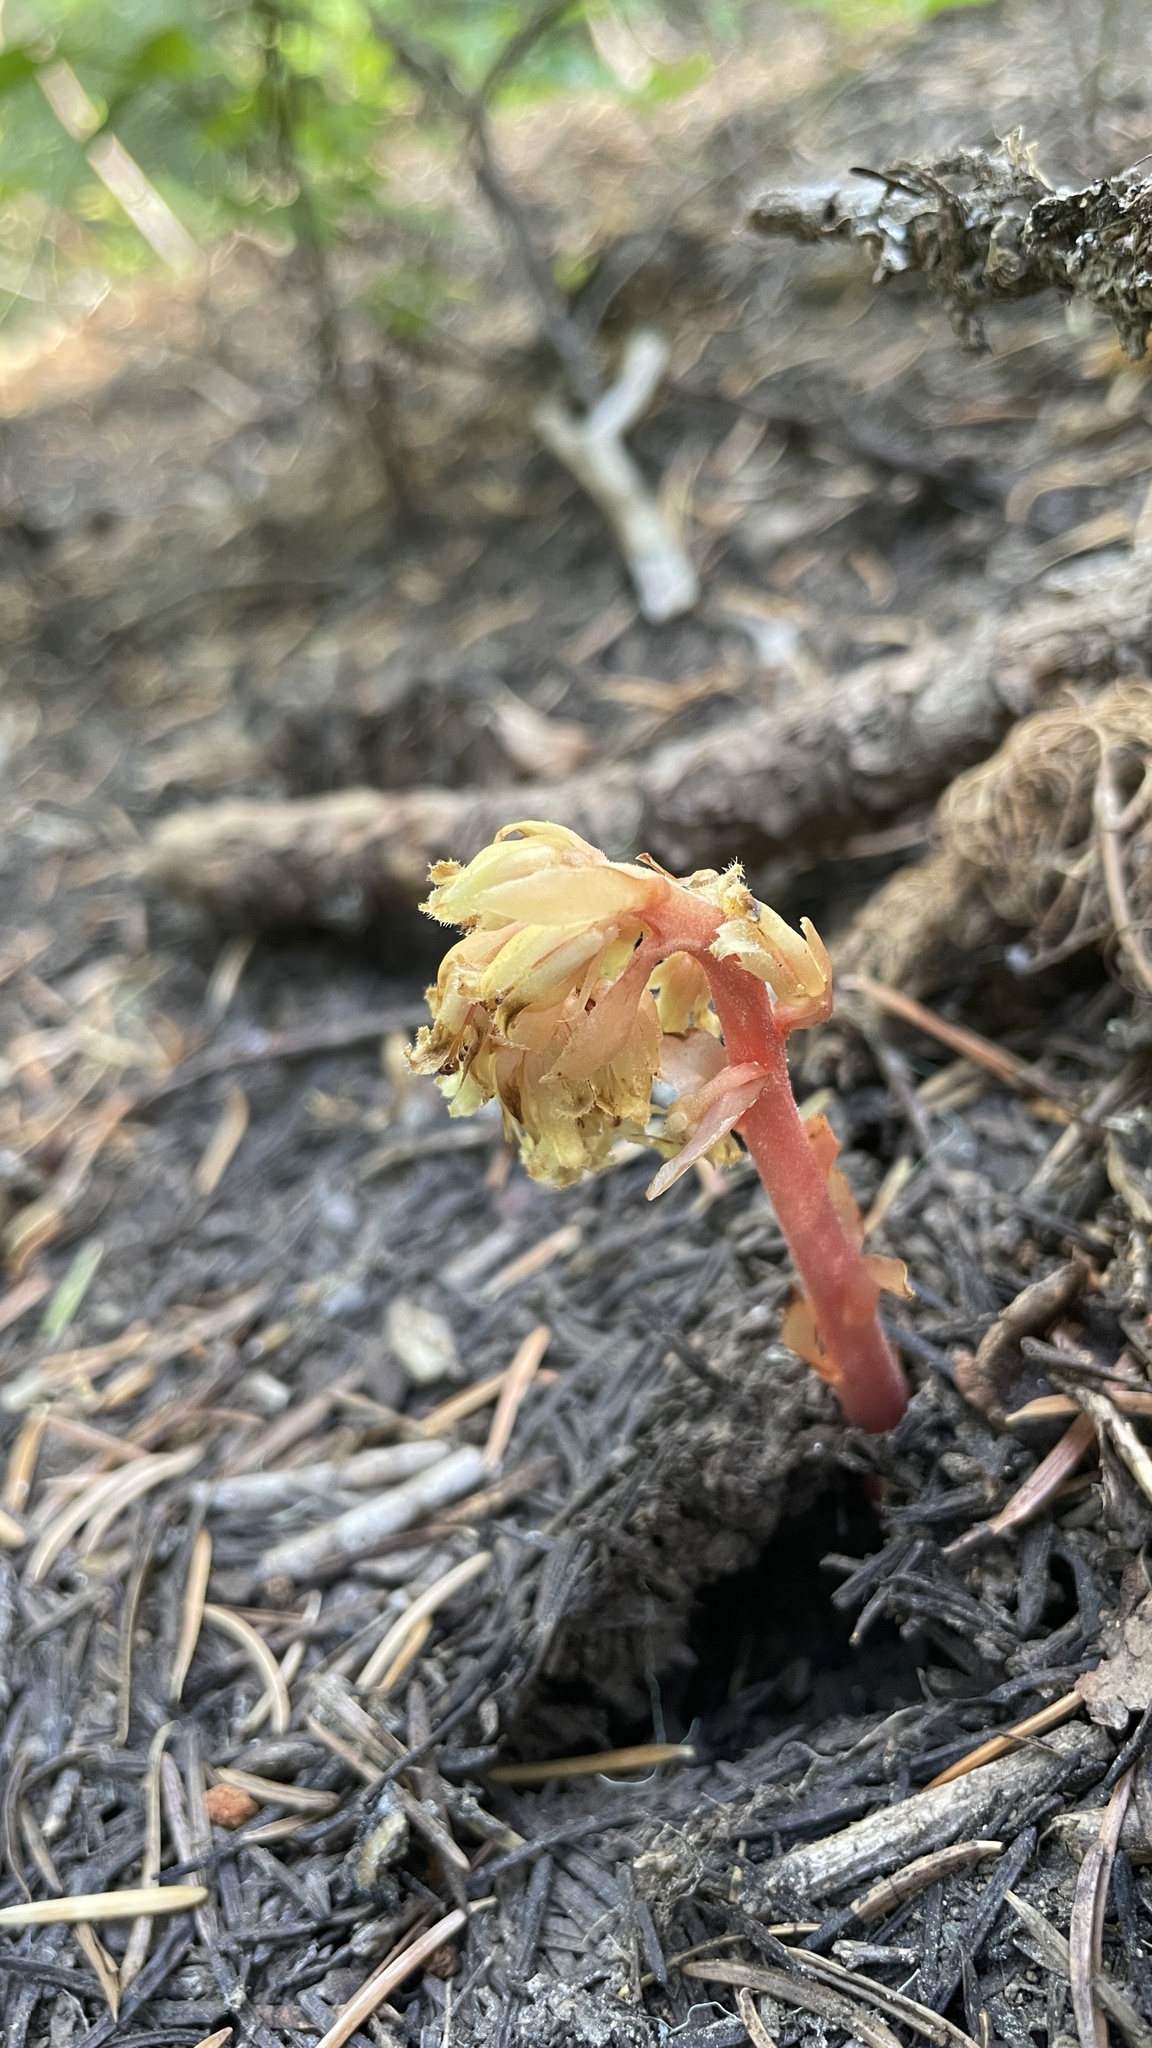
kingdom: Plantae
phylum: Tracheophyta
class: Magnoliopsida
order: Ericales
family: Ericaceae
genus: Hypopitys
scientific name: Hypopitys monotropa
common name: Yellow bird's-nest
